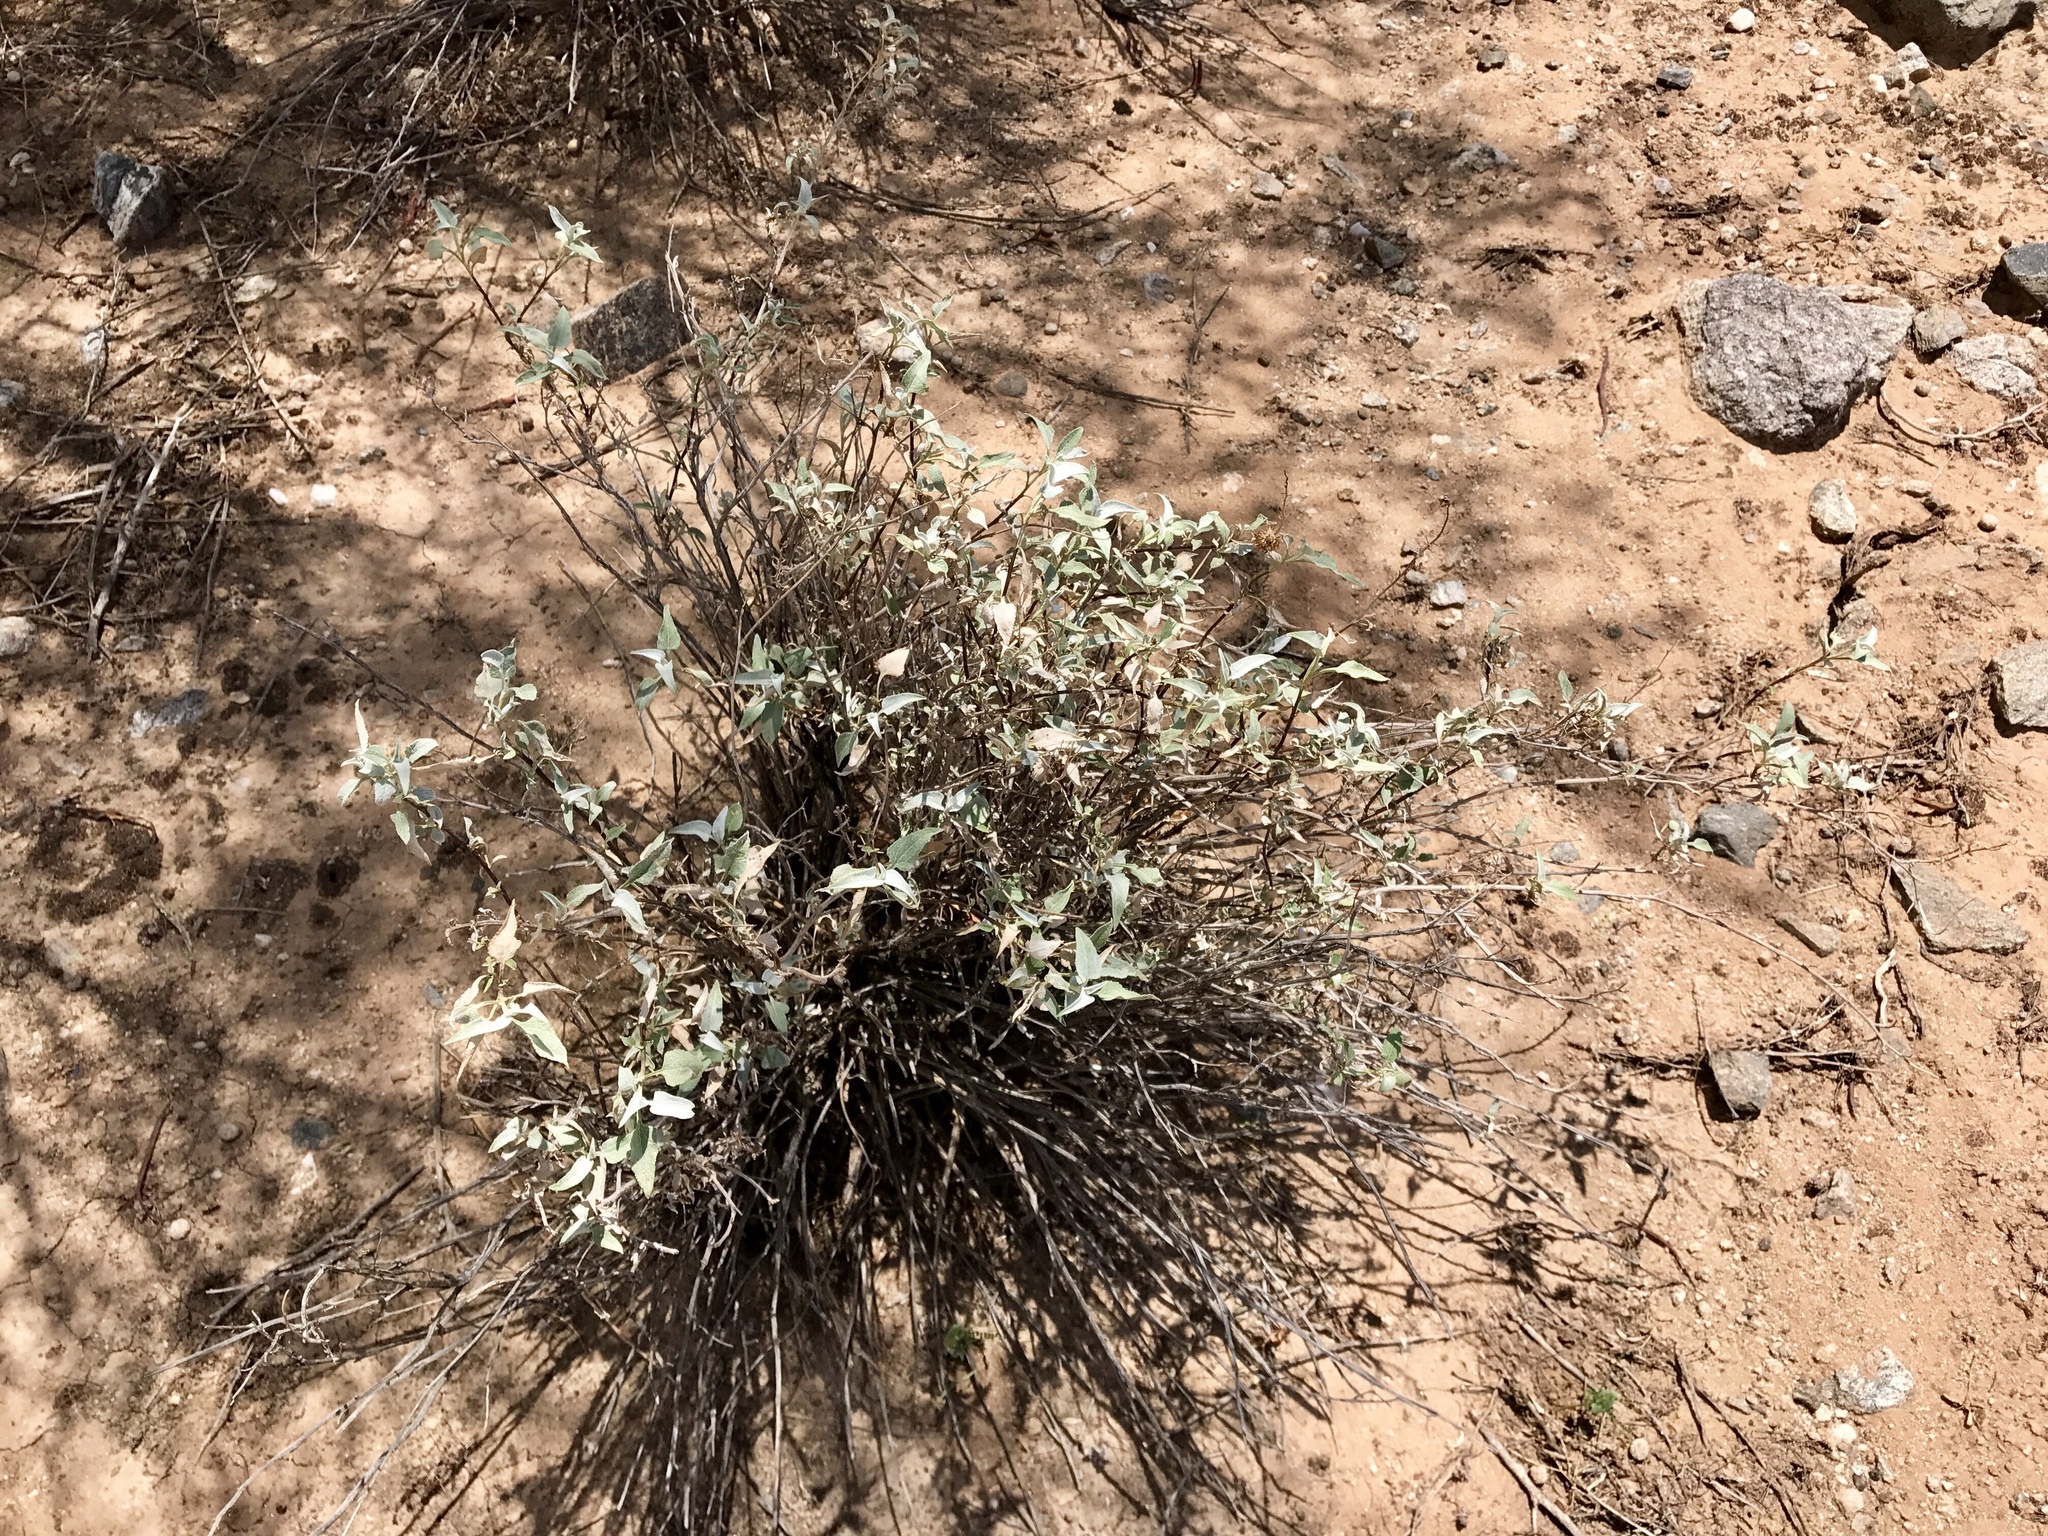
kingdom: Plantae
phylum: Tracheophyta
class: Magnoliopsida
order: Asterales
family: Asteraceae
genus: Ambrosia
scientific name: Ambrosia deltoidea
